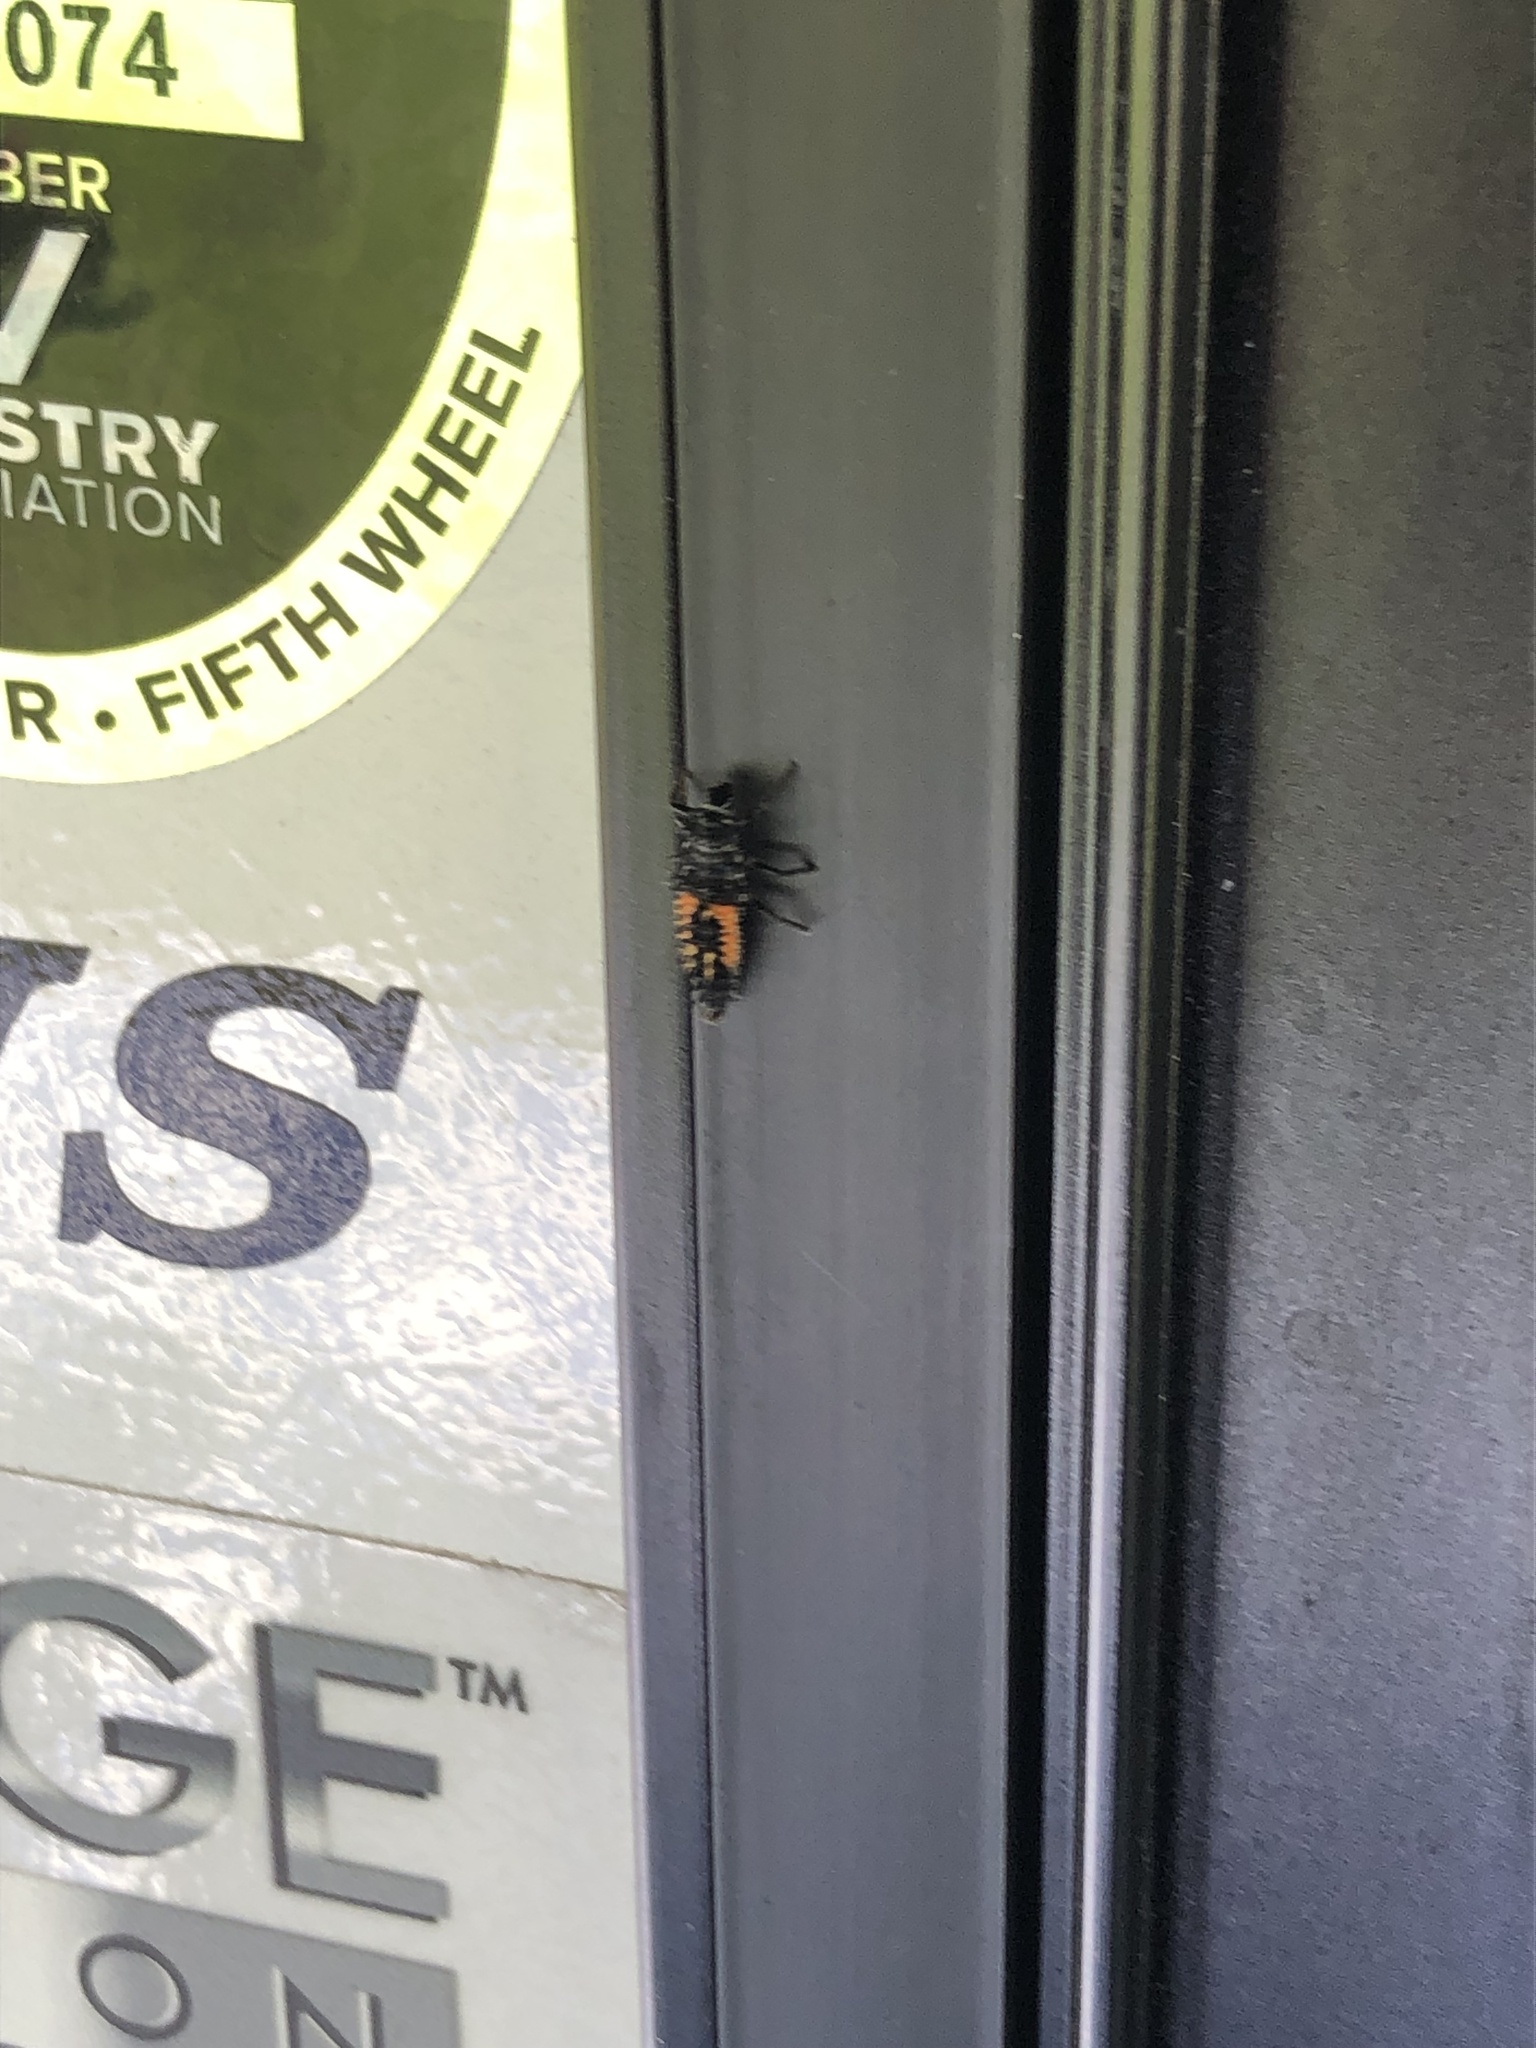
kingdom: Animalia
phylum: Arthropoda
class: Insecta
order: Coleoptera
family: Coccinellidae
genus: Harmonia
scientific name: Harmonia axyridis
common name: Harlequin ladybird
